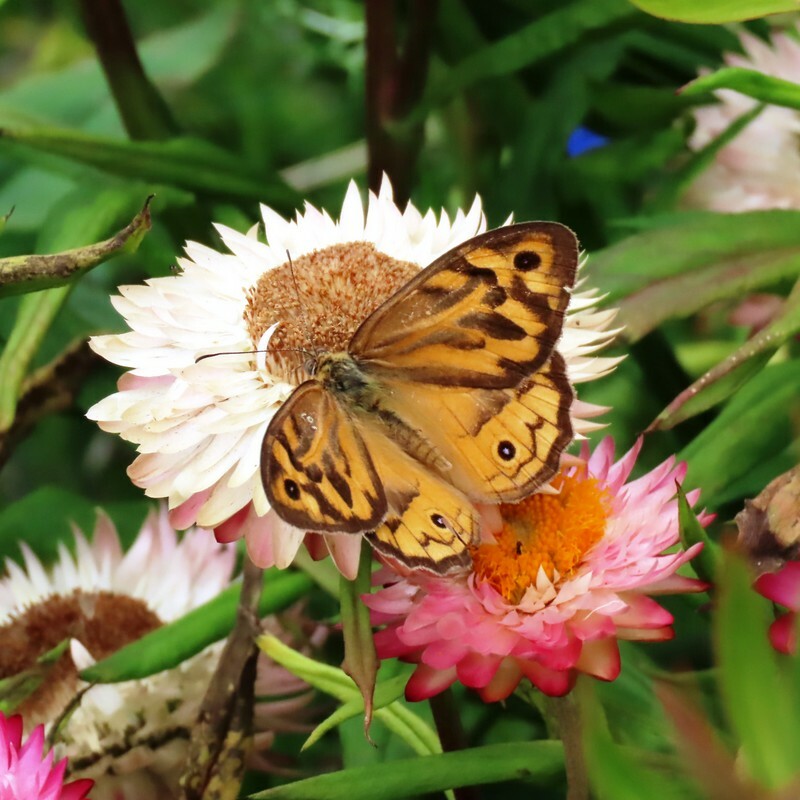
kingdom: Animalia
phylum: Arthropoda
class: Insecta
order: Lepidoptera
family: Nymphalidae
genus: Heteronympha
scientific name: Heteronympha merope
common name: Common brown
